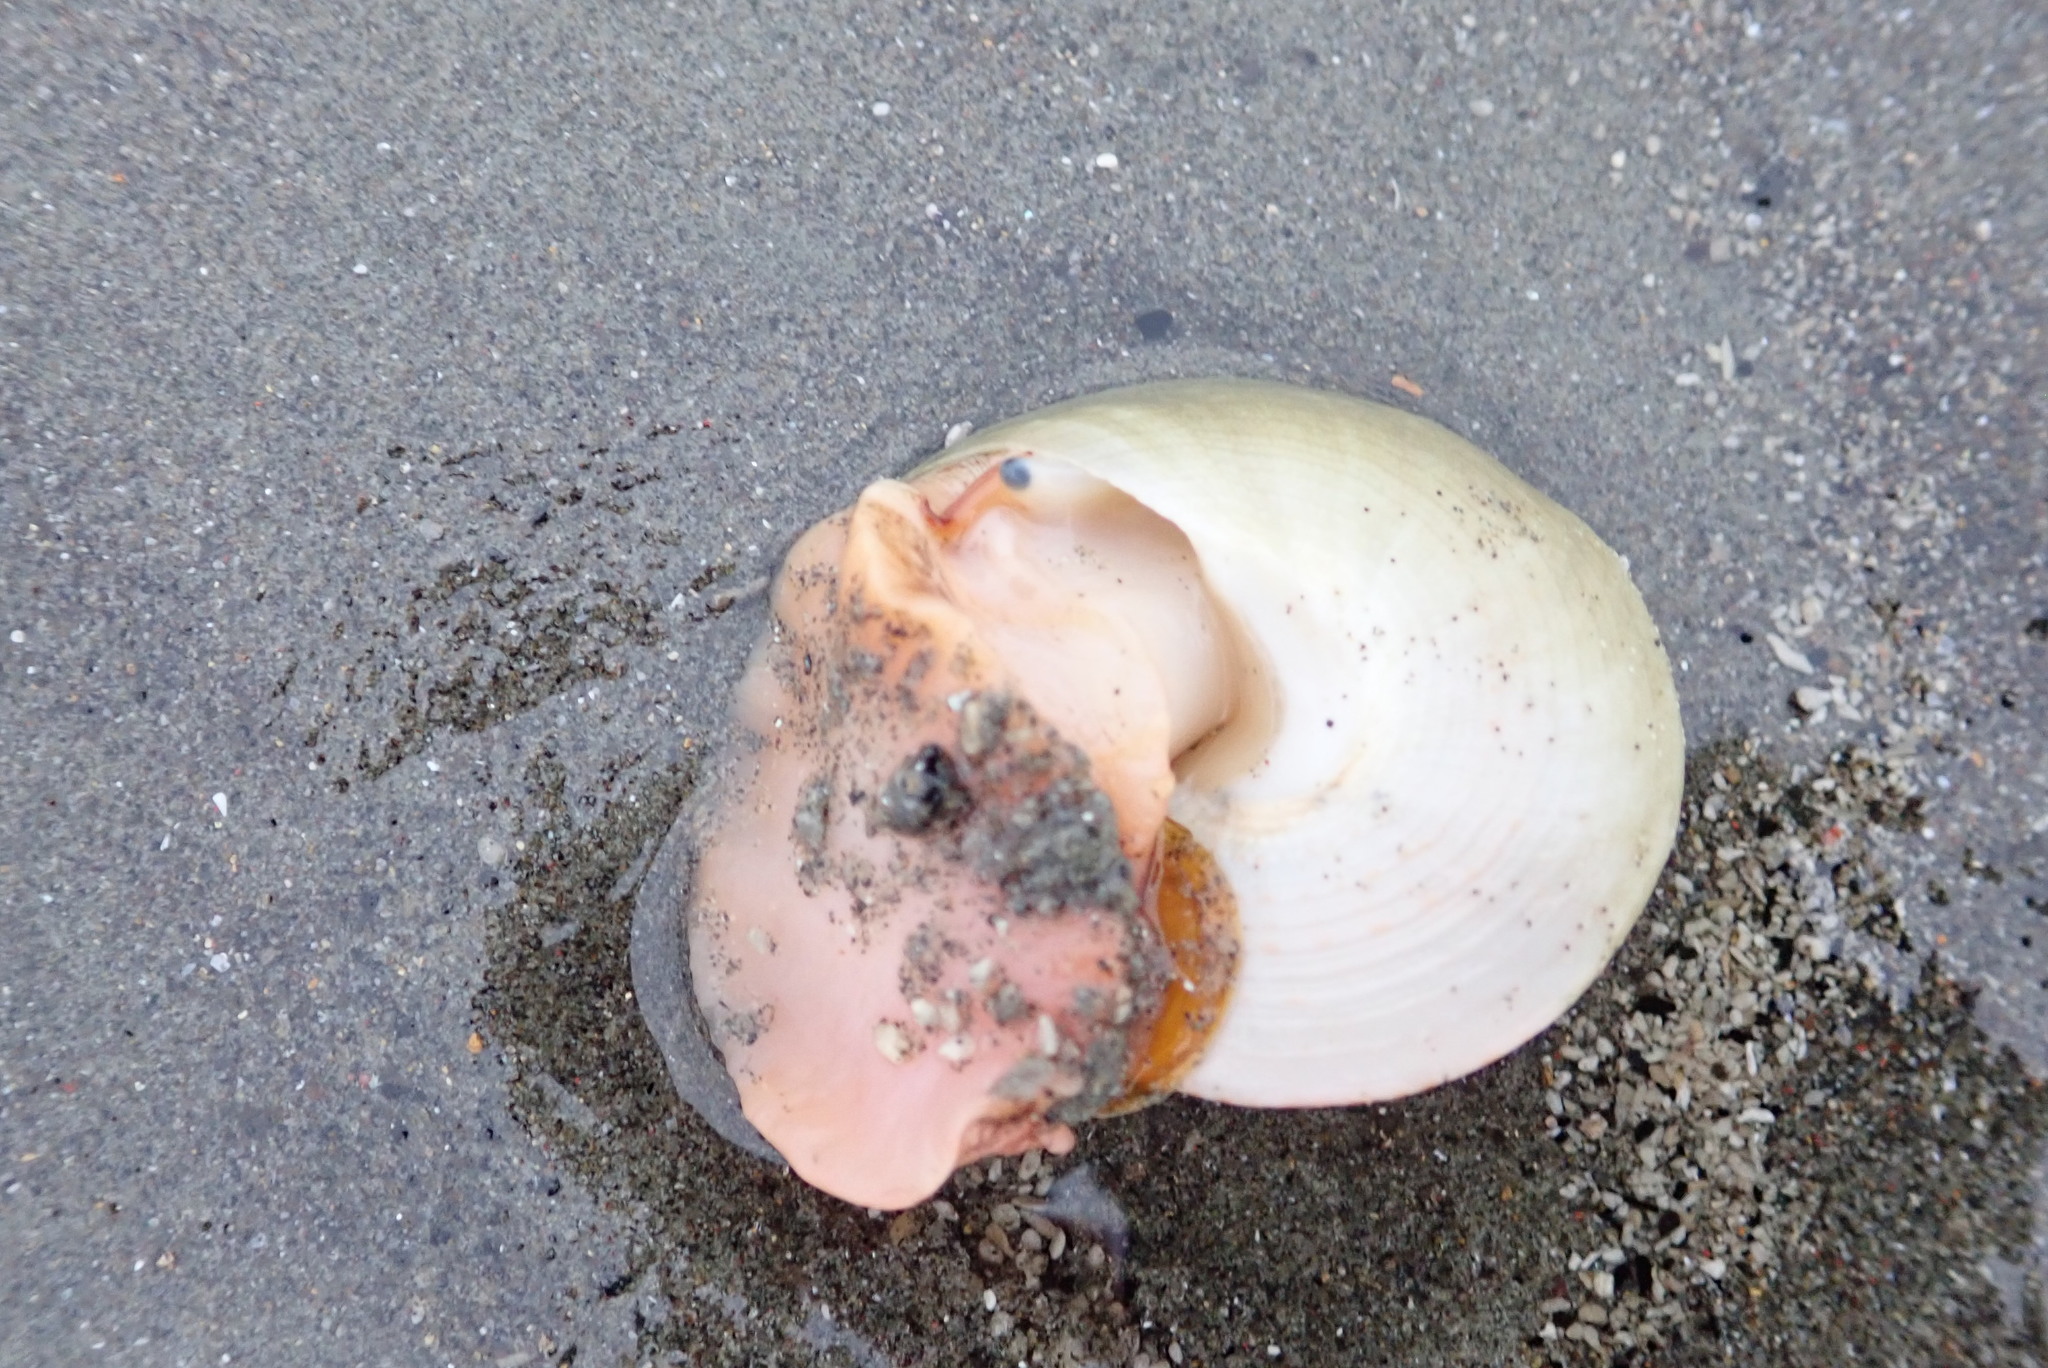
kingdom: Animalia
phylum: Mollusca
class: Gastropoda
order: Trochida
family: Calliostomatidae
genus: Maurea
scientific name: Maurea selecta
